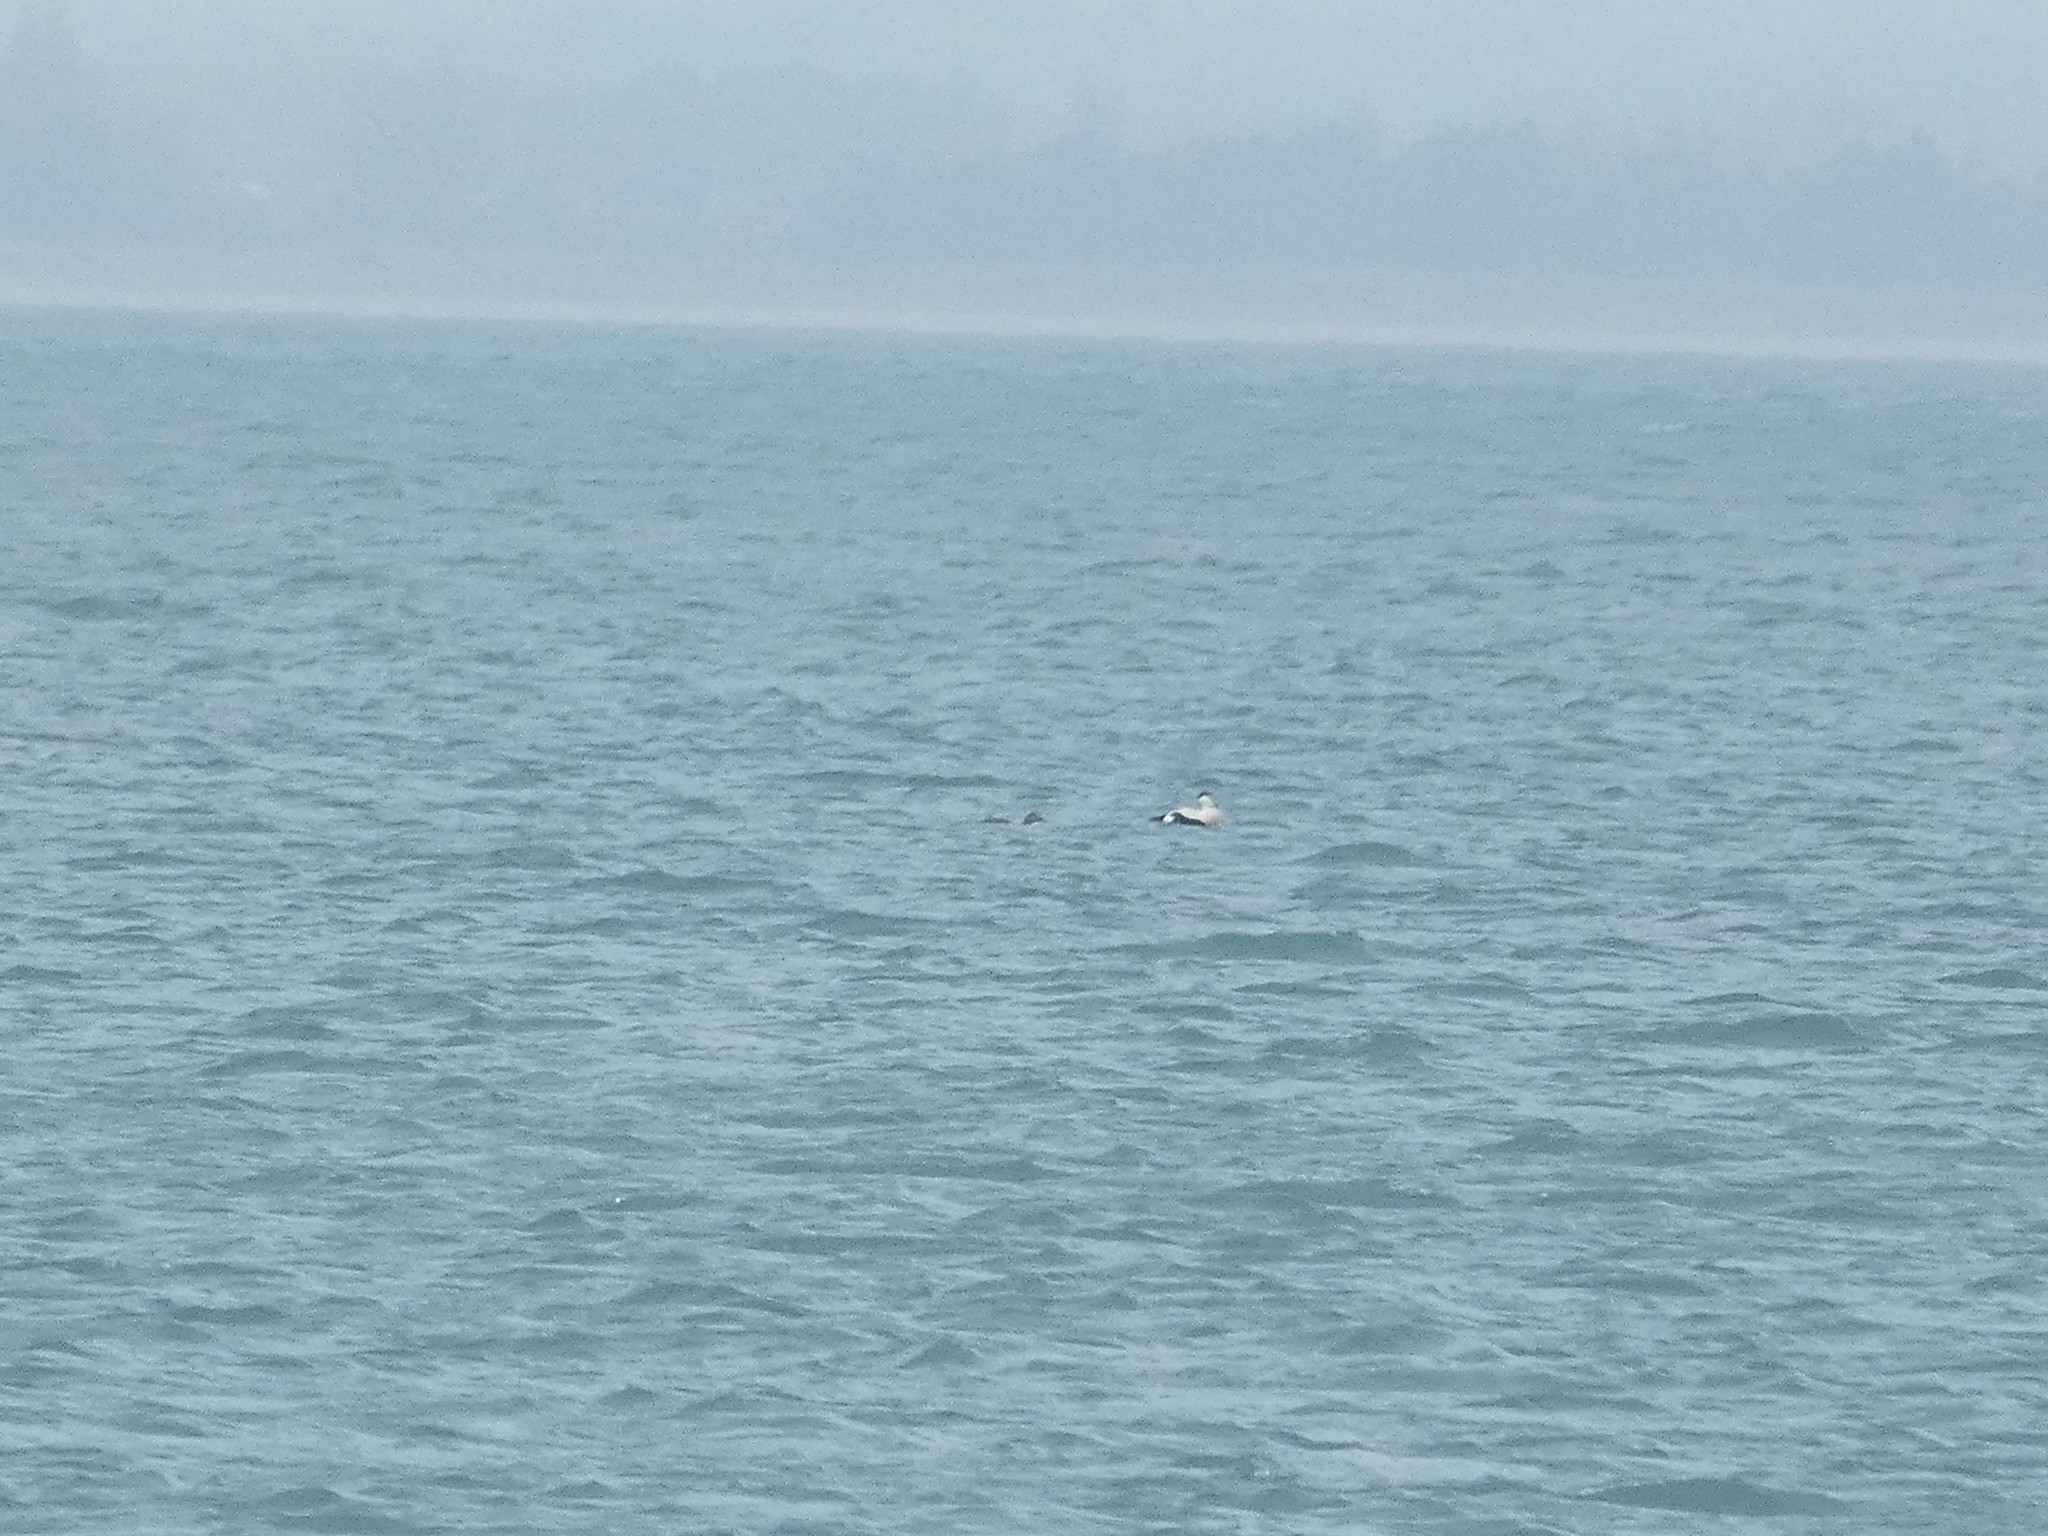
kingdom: Animalia
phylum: Chordata
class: Aves
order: Anseriformes
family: Anatidae
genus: Somateria
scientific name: Somateria mollissima
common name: Common eider
